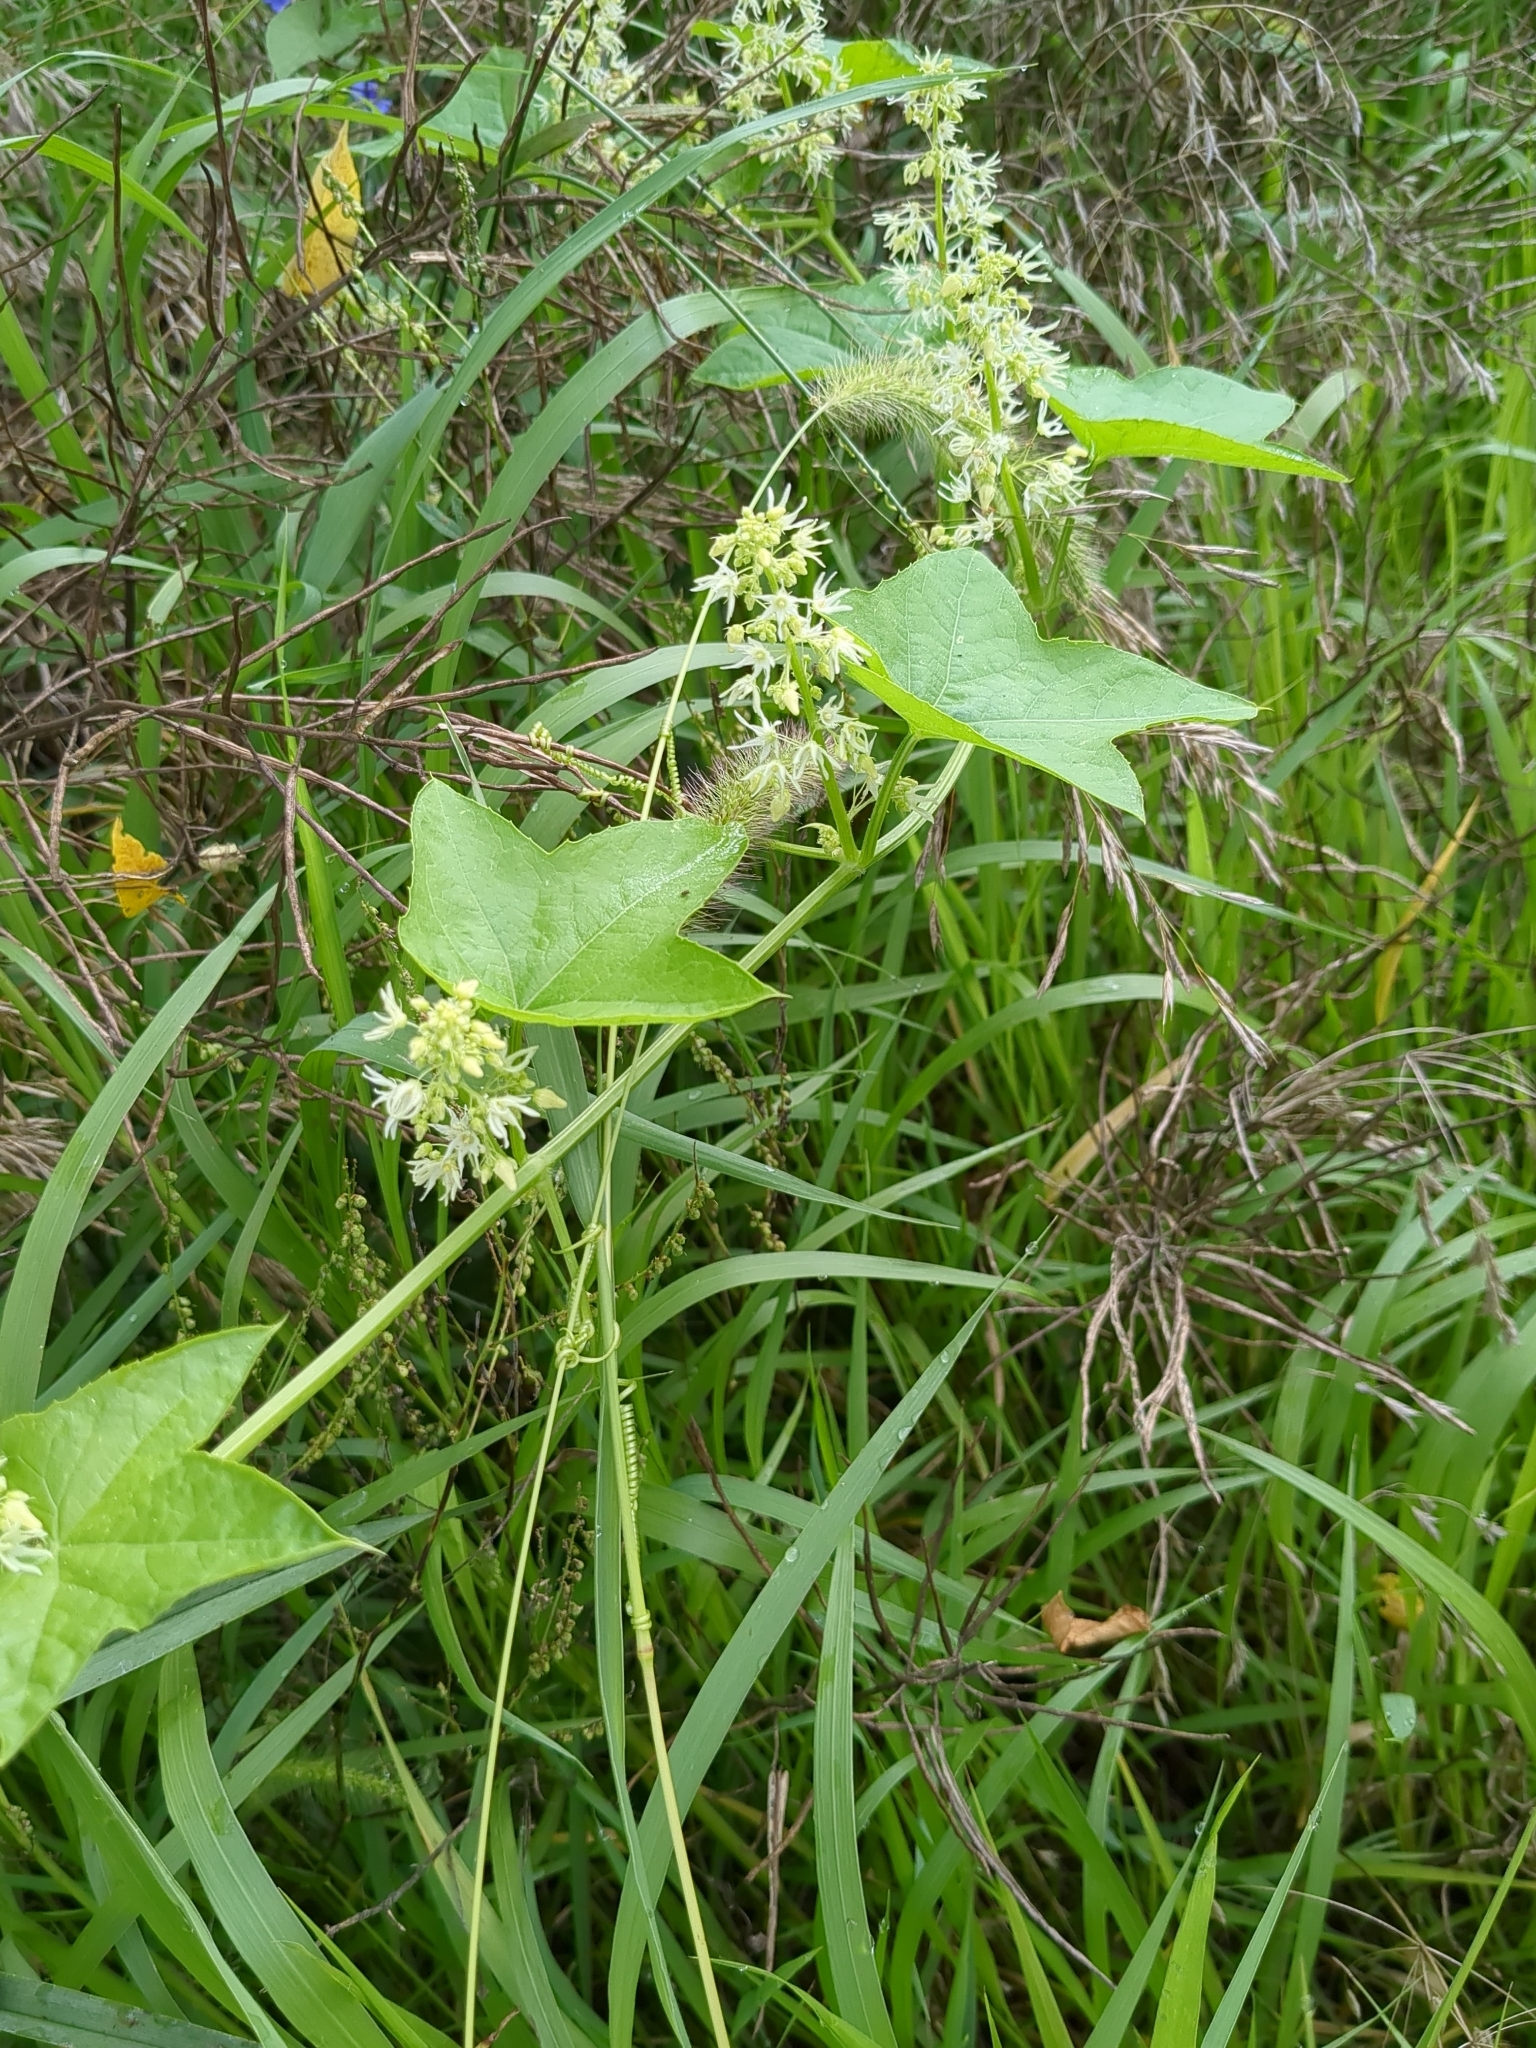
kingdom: Plantae
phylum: Tracheophyta
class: Magnoliopsida
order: Cucurbitales
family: Cucurbitaceae
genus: Echinocystis
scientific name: Echinocystis lobata
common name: Wild cucumber
